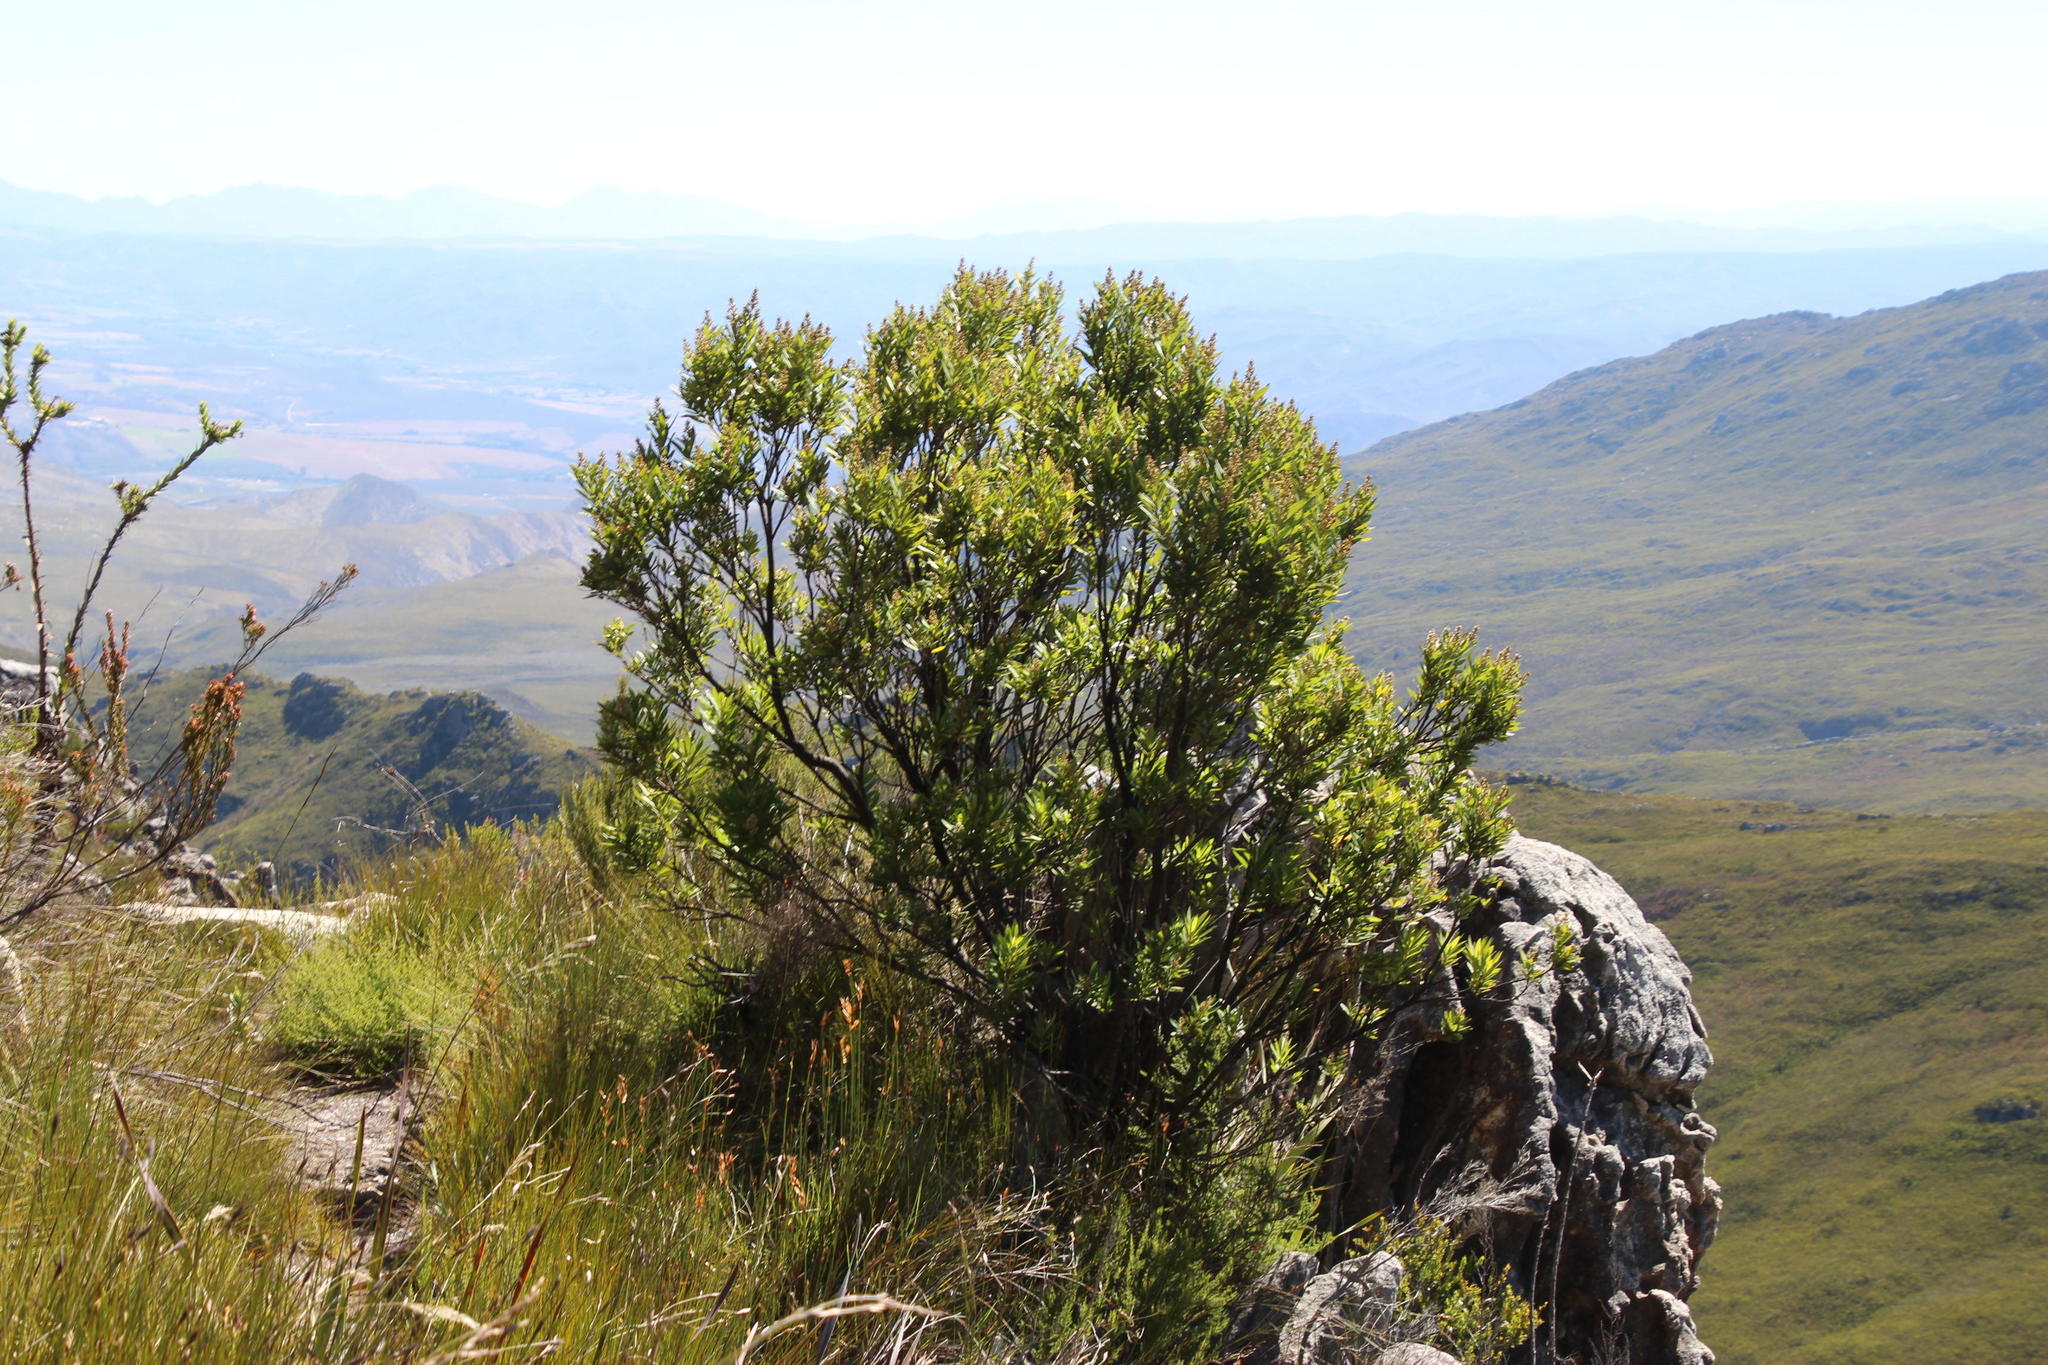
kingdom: Plantae
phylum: Tracheophyta
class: Magnoliopsida
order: Asterales
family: Asteraceae
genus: Brachylaena
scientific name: Brachylaena neriifolia
